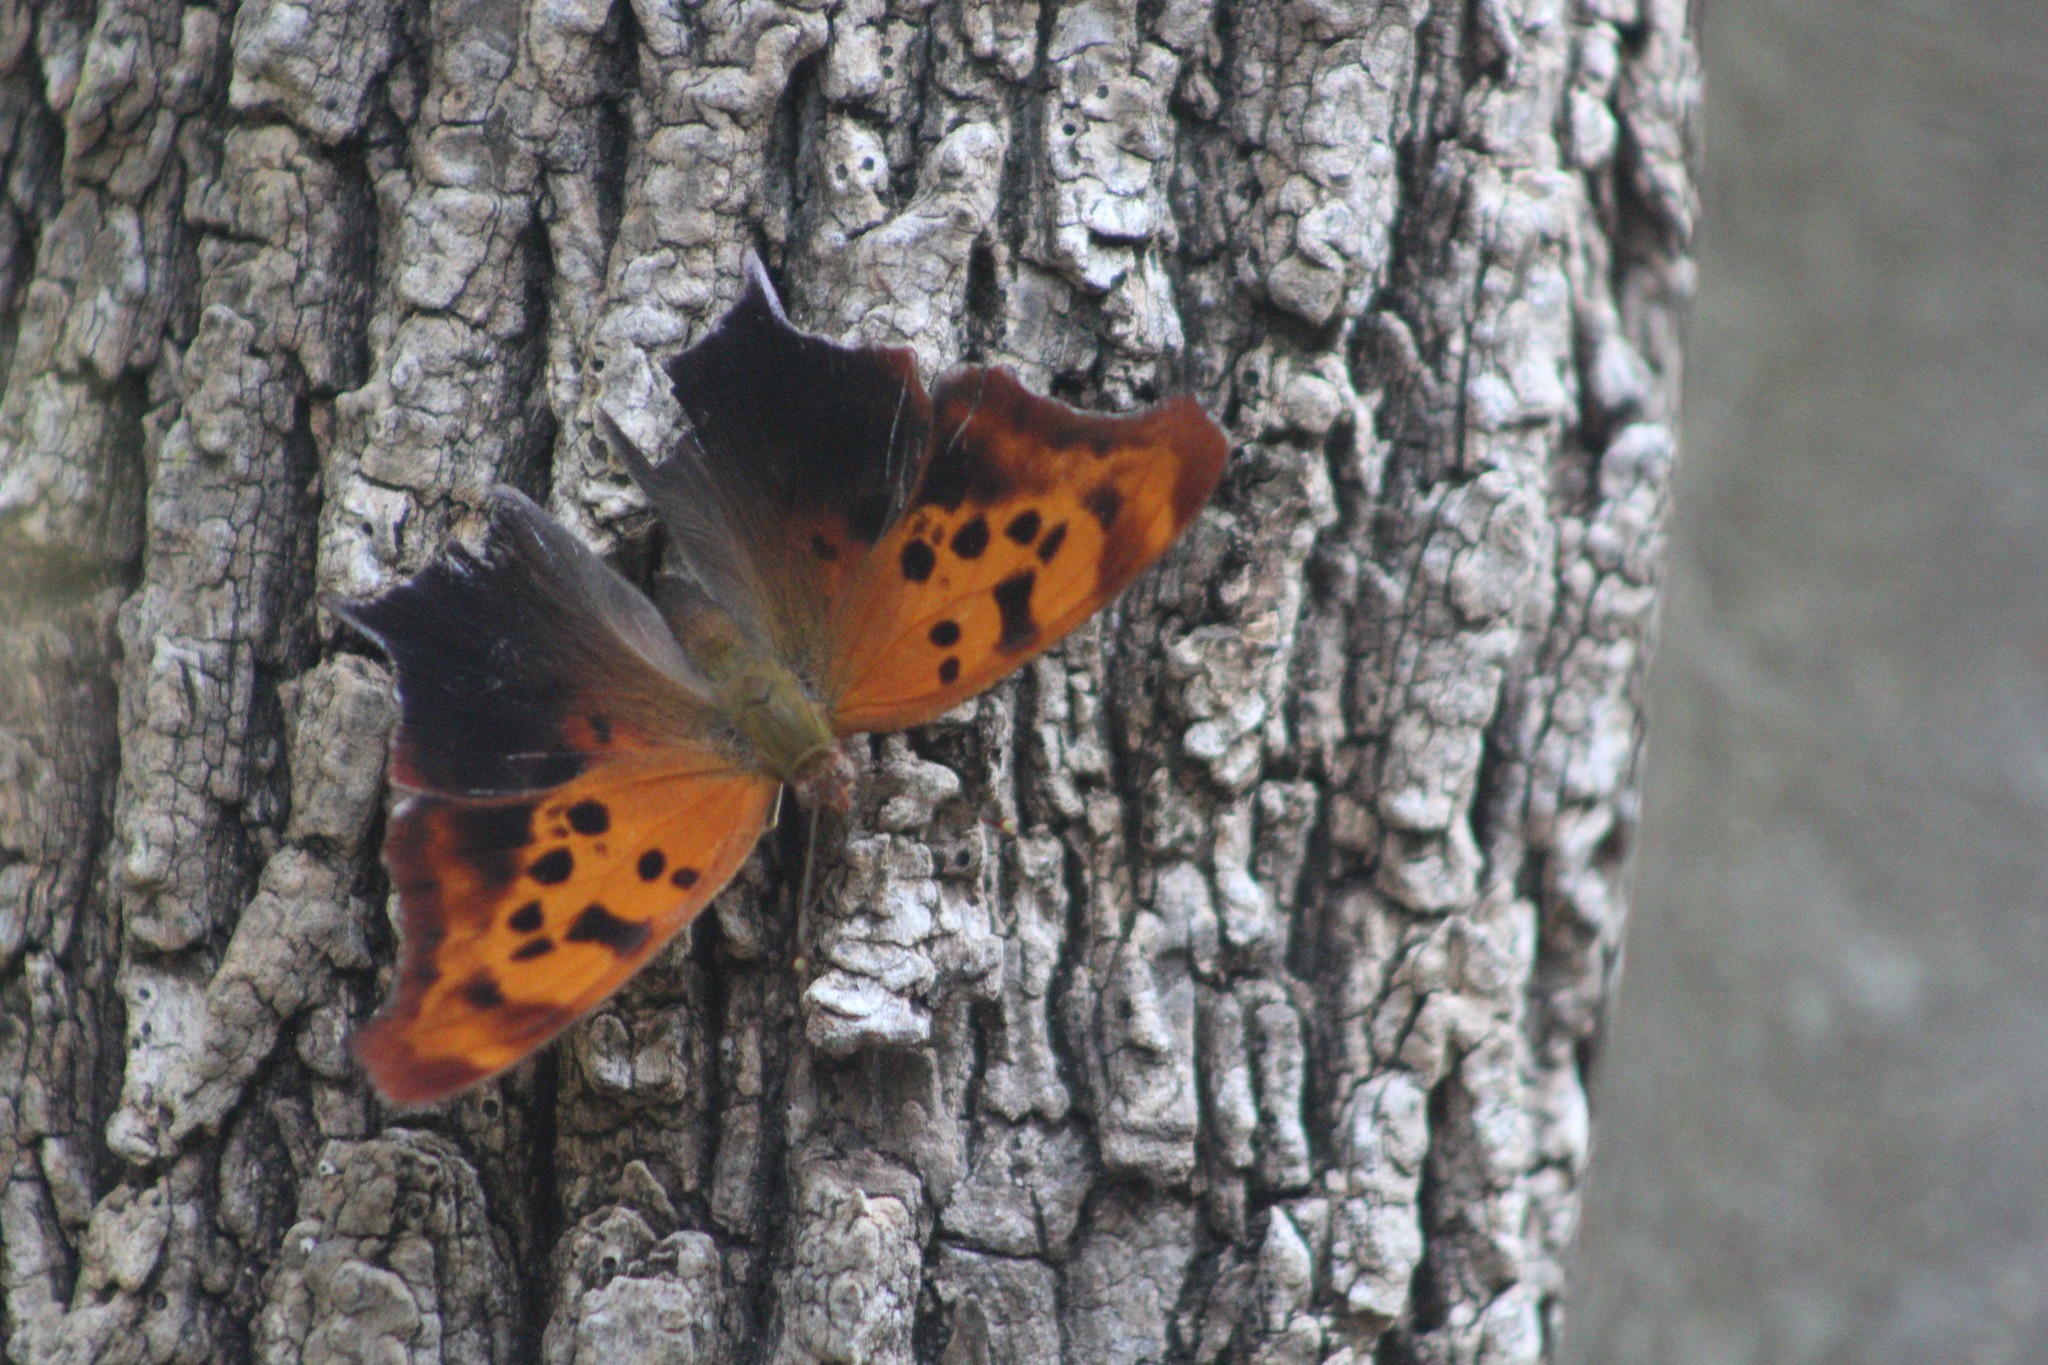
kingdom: Animalia
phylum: Arthropoda
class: Insecta
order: Lepidoptera
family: Nymphalidae
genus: Polygonia
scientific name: Polygonia interrogationis
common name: Question mark
